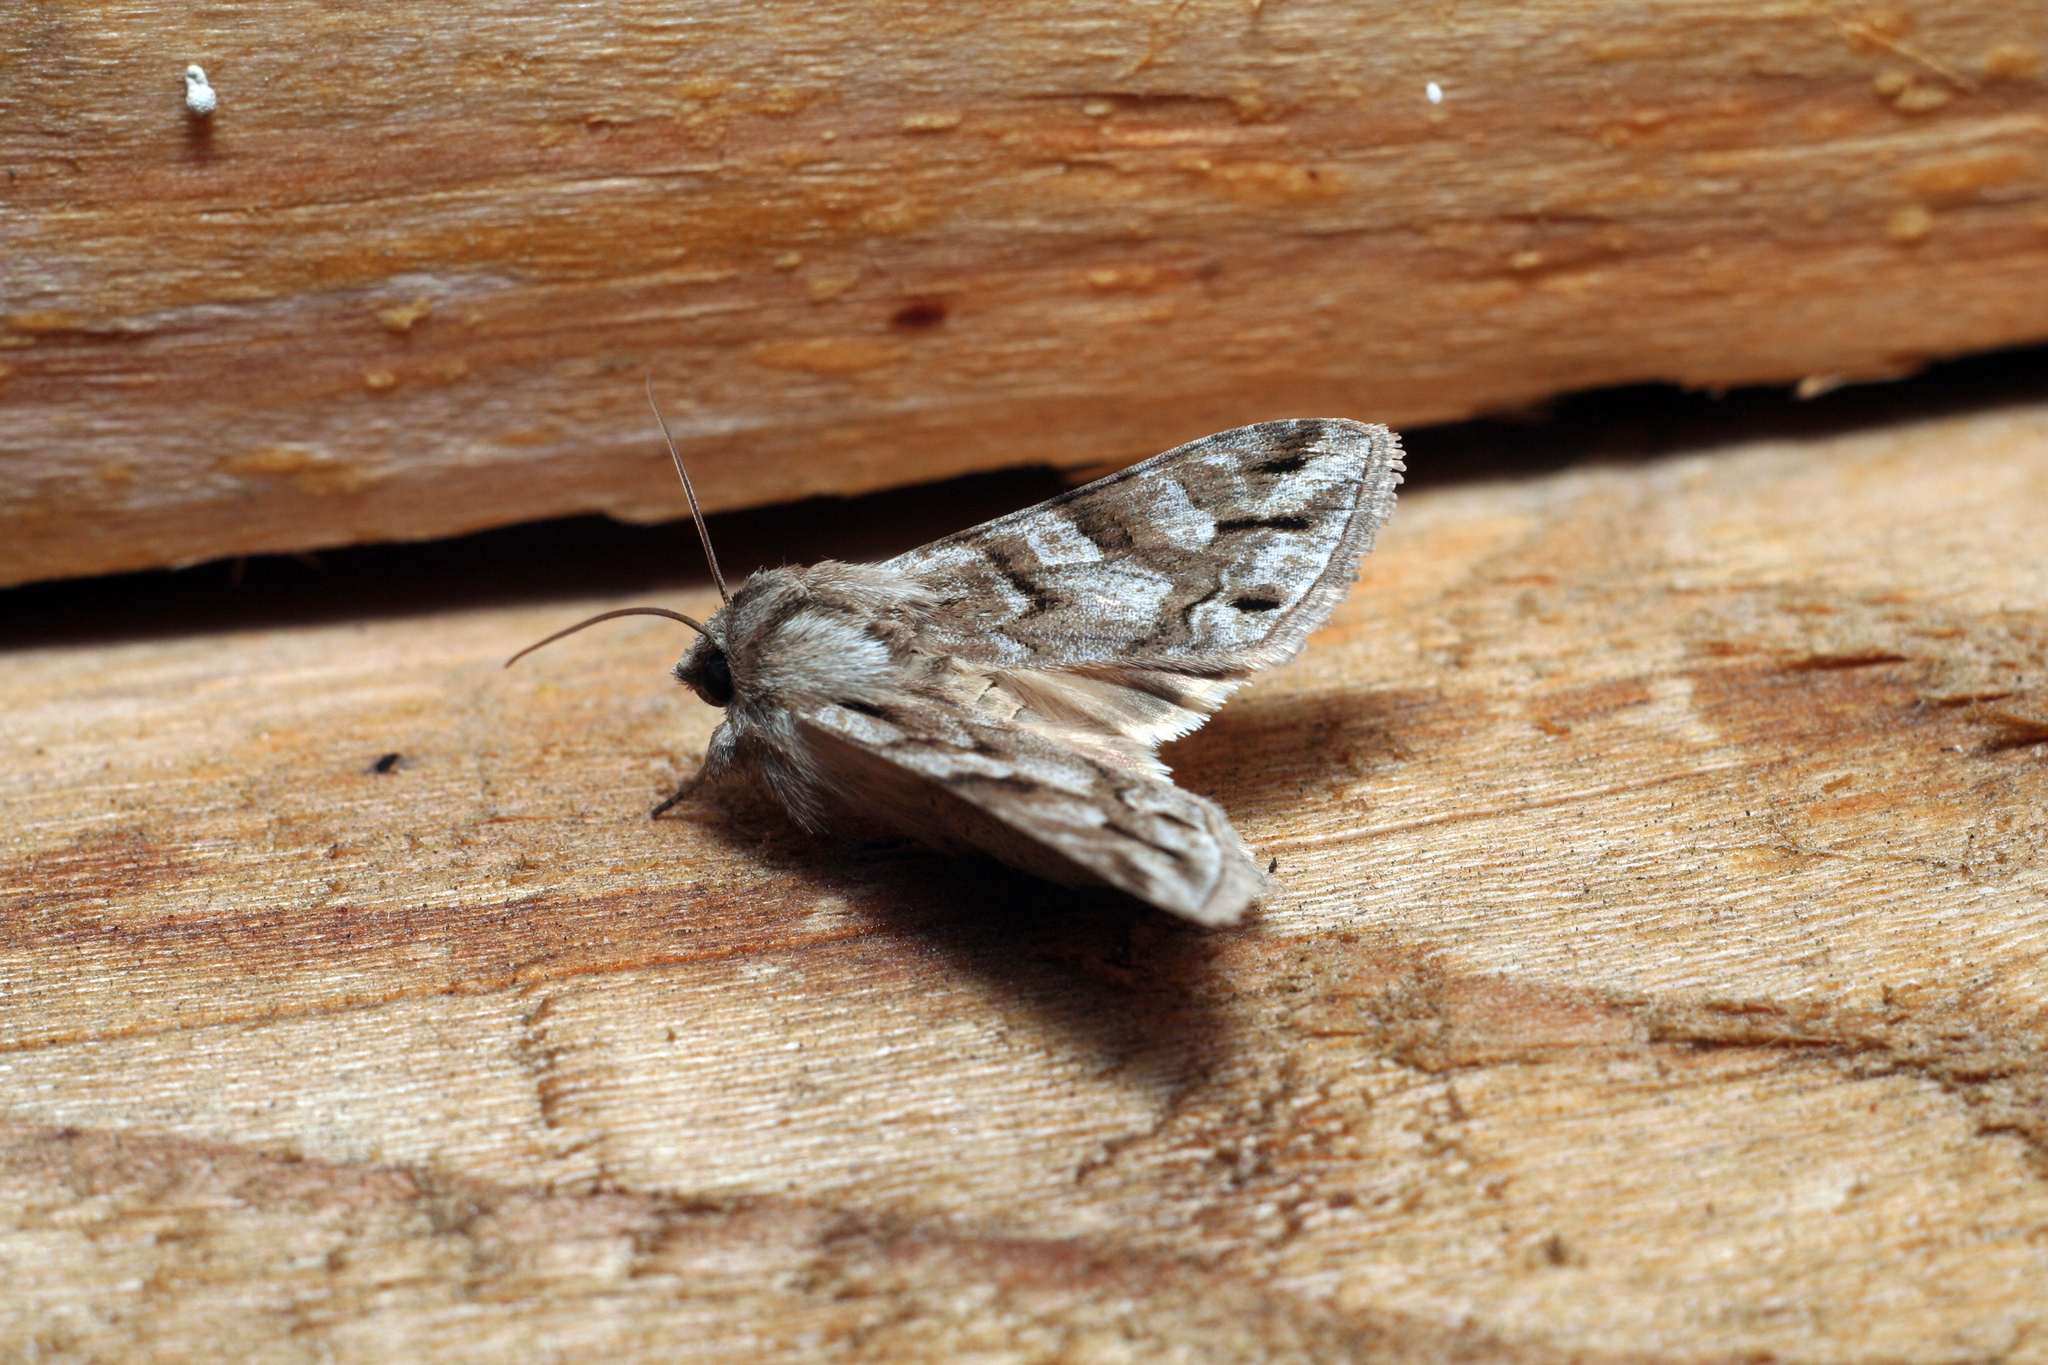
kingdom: Animalia
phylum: Arthropoda
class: Insecta
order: Lepidoptera
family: Noctuidae
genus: Cucullia
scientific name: Cucullia fraudatrix
